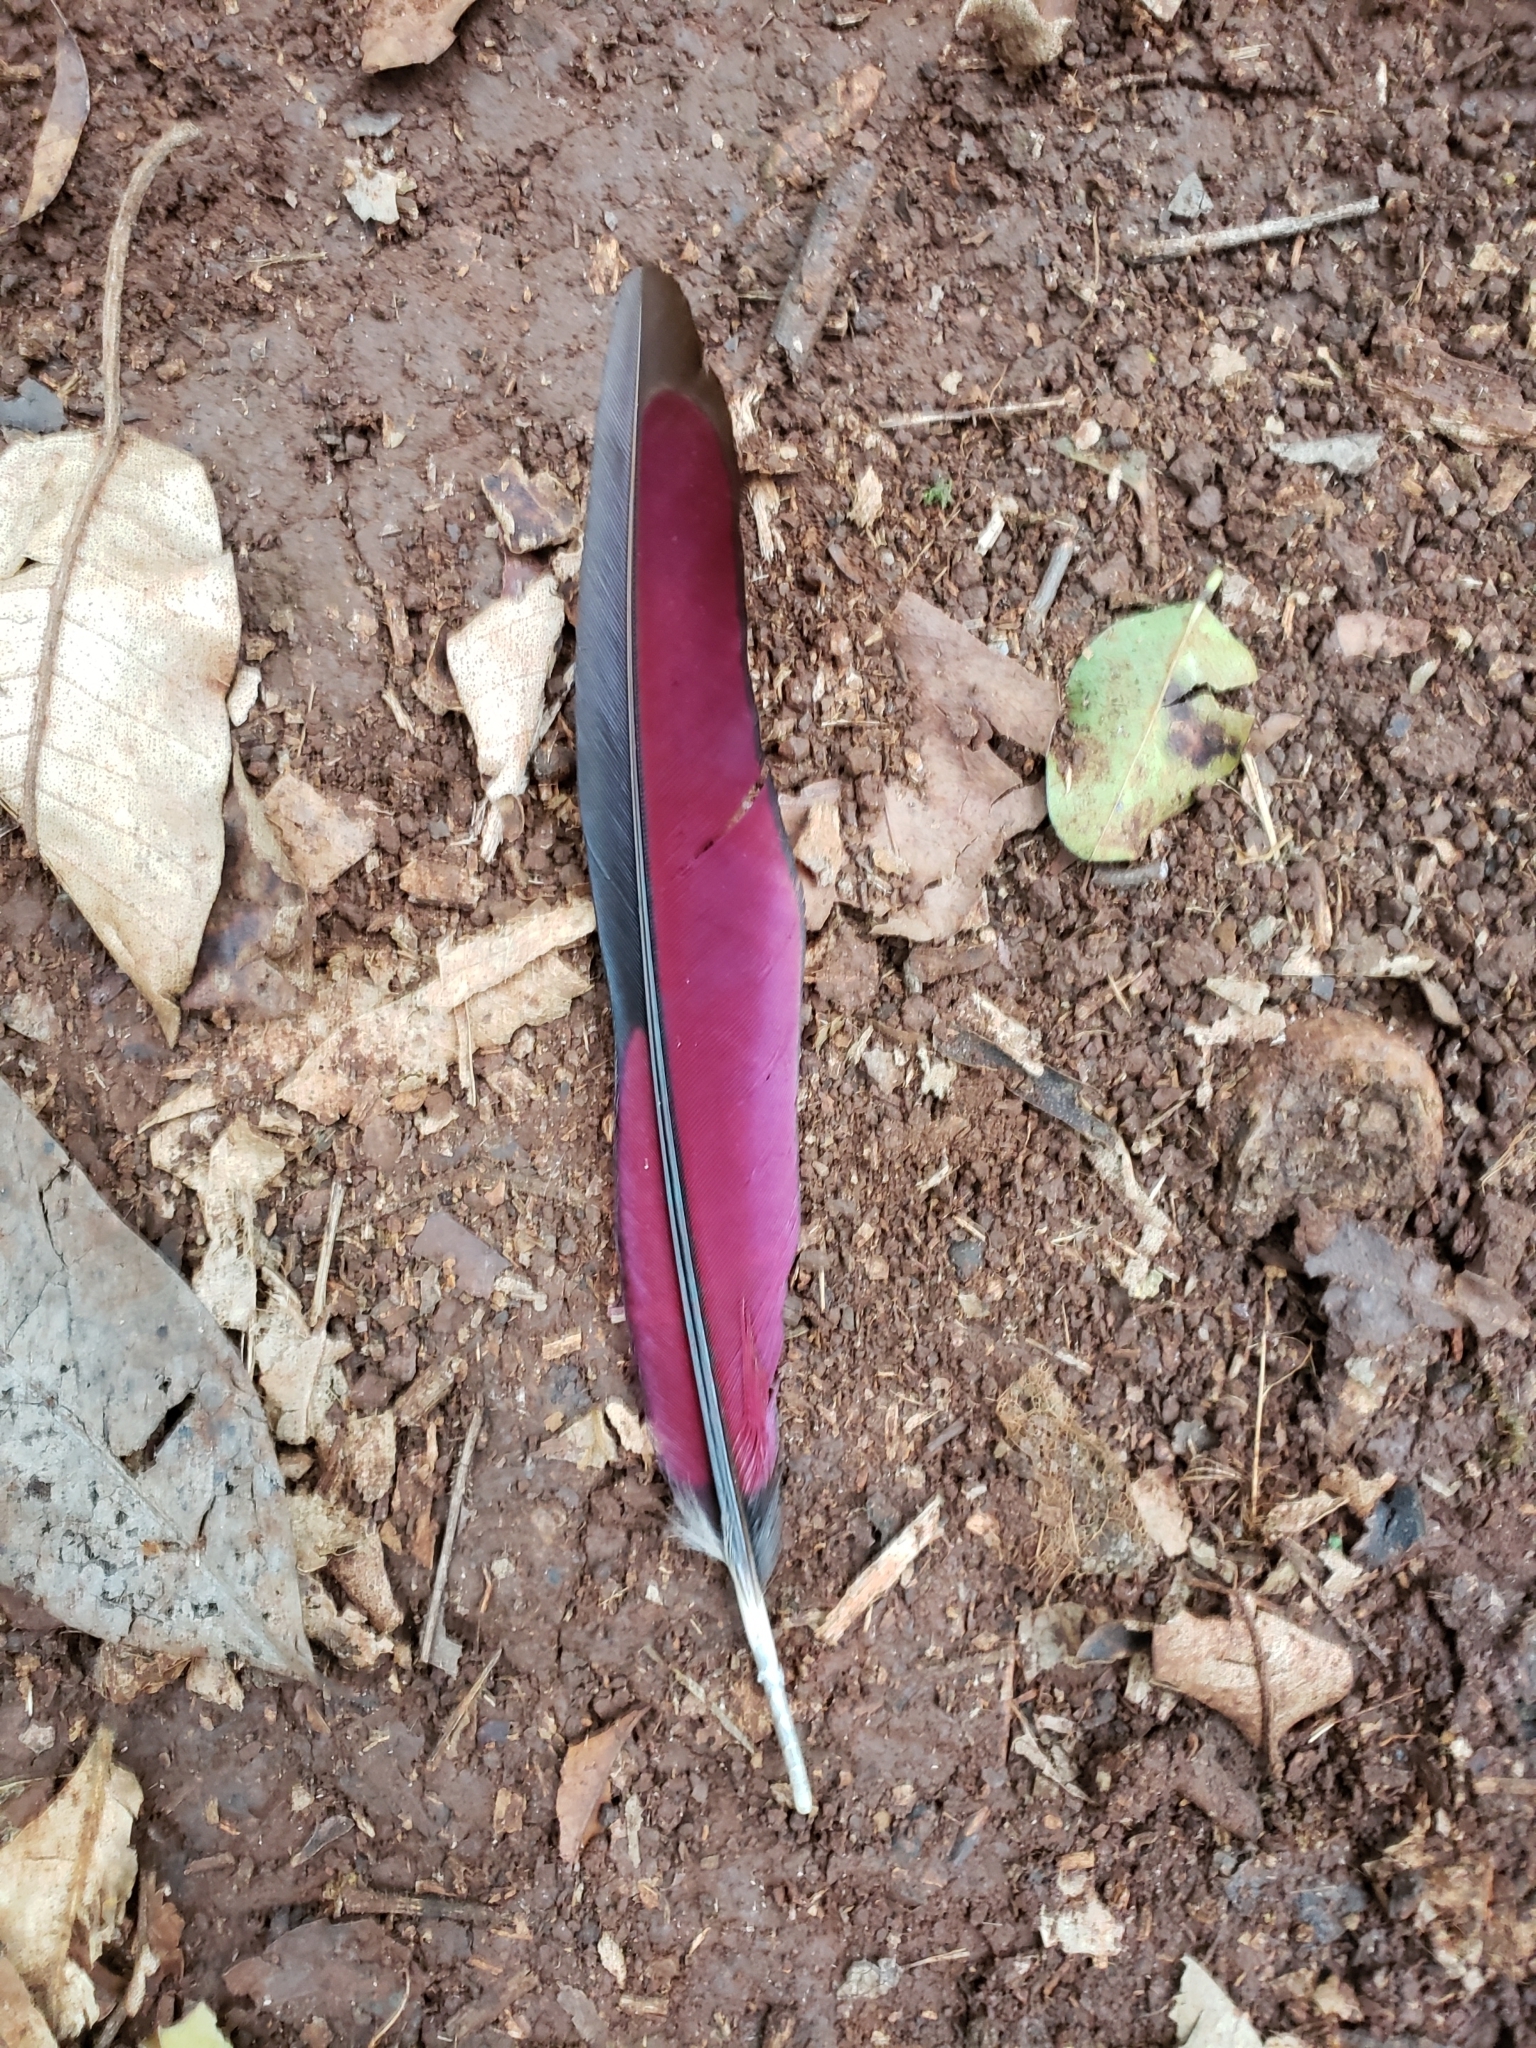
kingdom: Animalia
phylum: Chordata
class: Aves
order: Musophagiformes
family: Musophagidae
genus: Tauraco
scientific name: Tauraco hartlaubi
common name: Hartlaub's turaco
